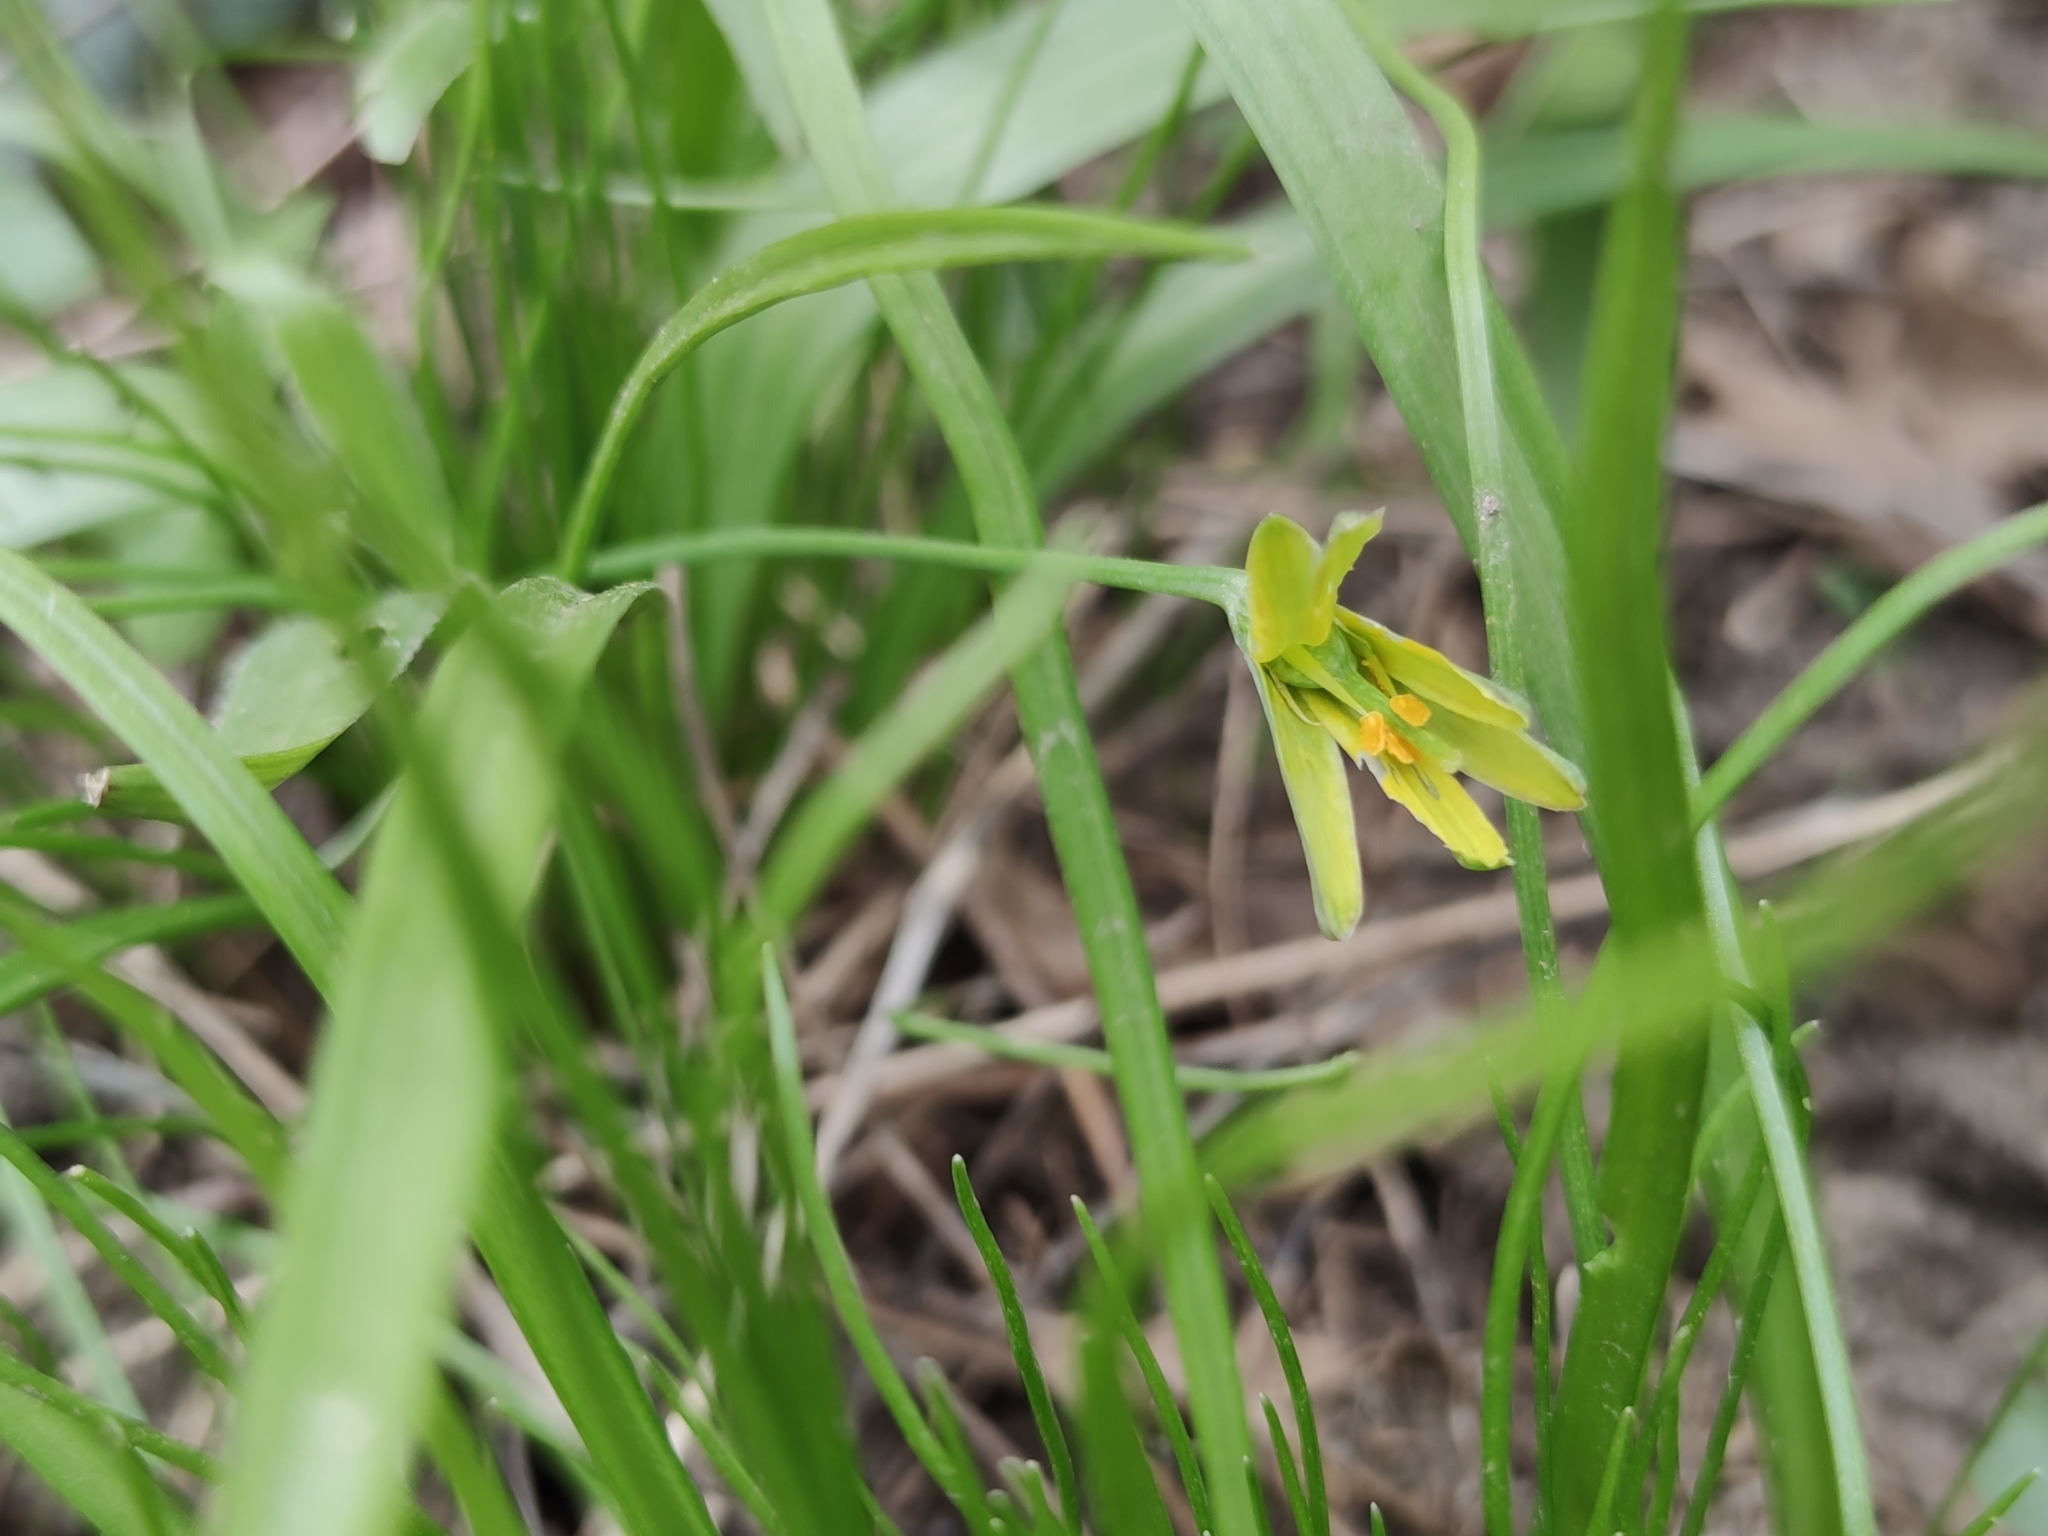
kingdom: Plantae
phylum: Tracheophyta
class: Liliopsida
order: Liliales
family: Liliaceae
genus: Gagea
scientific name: Gagea lutea
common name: Yellow star-of-bethlehem
